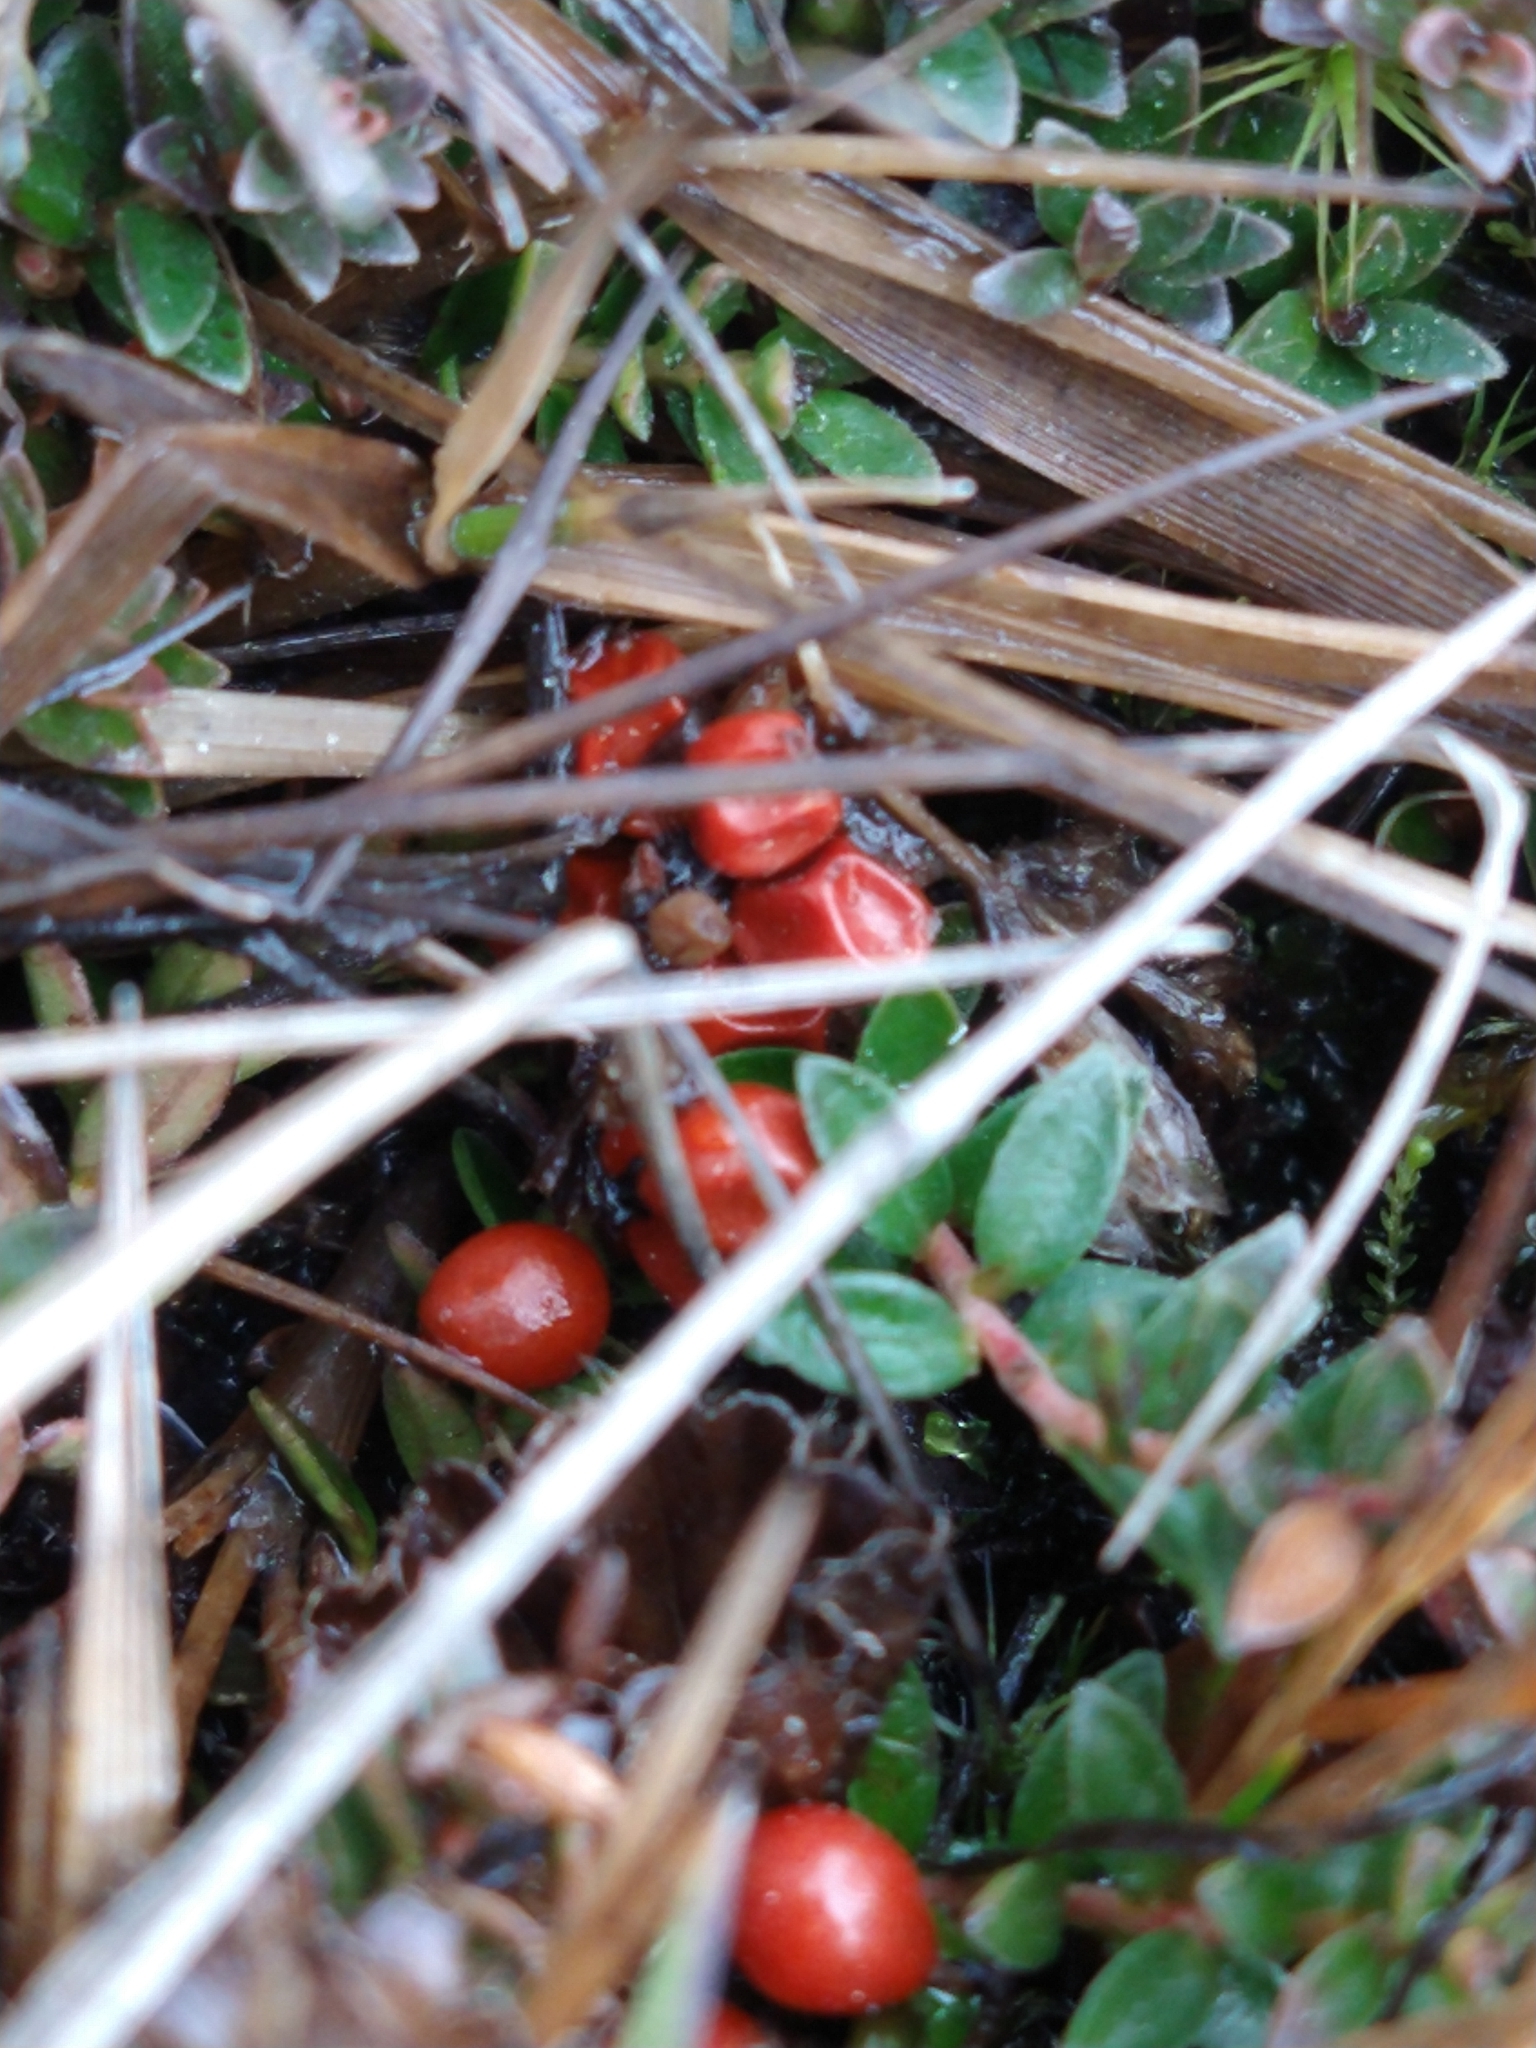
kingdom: Plantae
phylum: Tracheophyta
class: Magnoliopsida
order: Gunnerales
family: Gunneraceae
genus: Gunnera
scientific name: Gunnera magellanica
